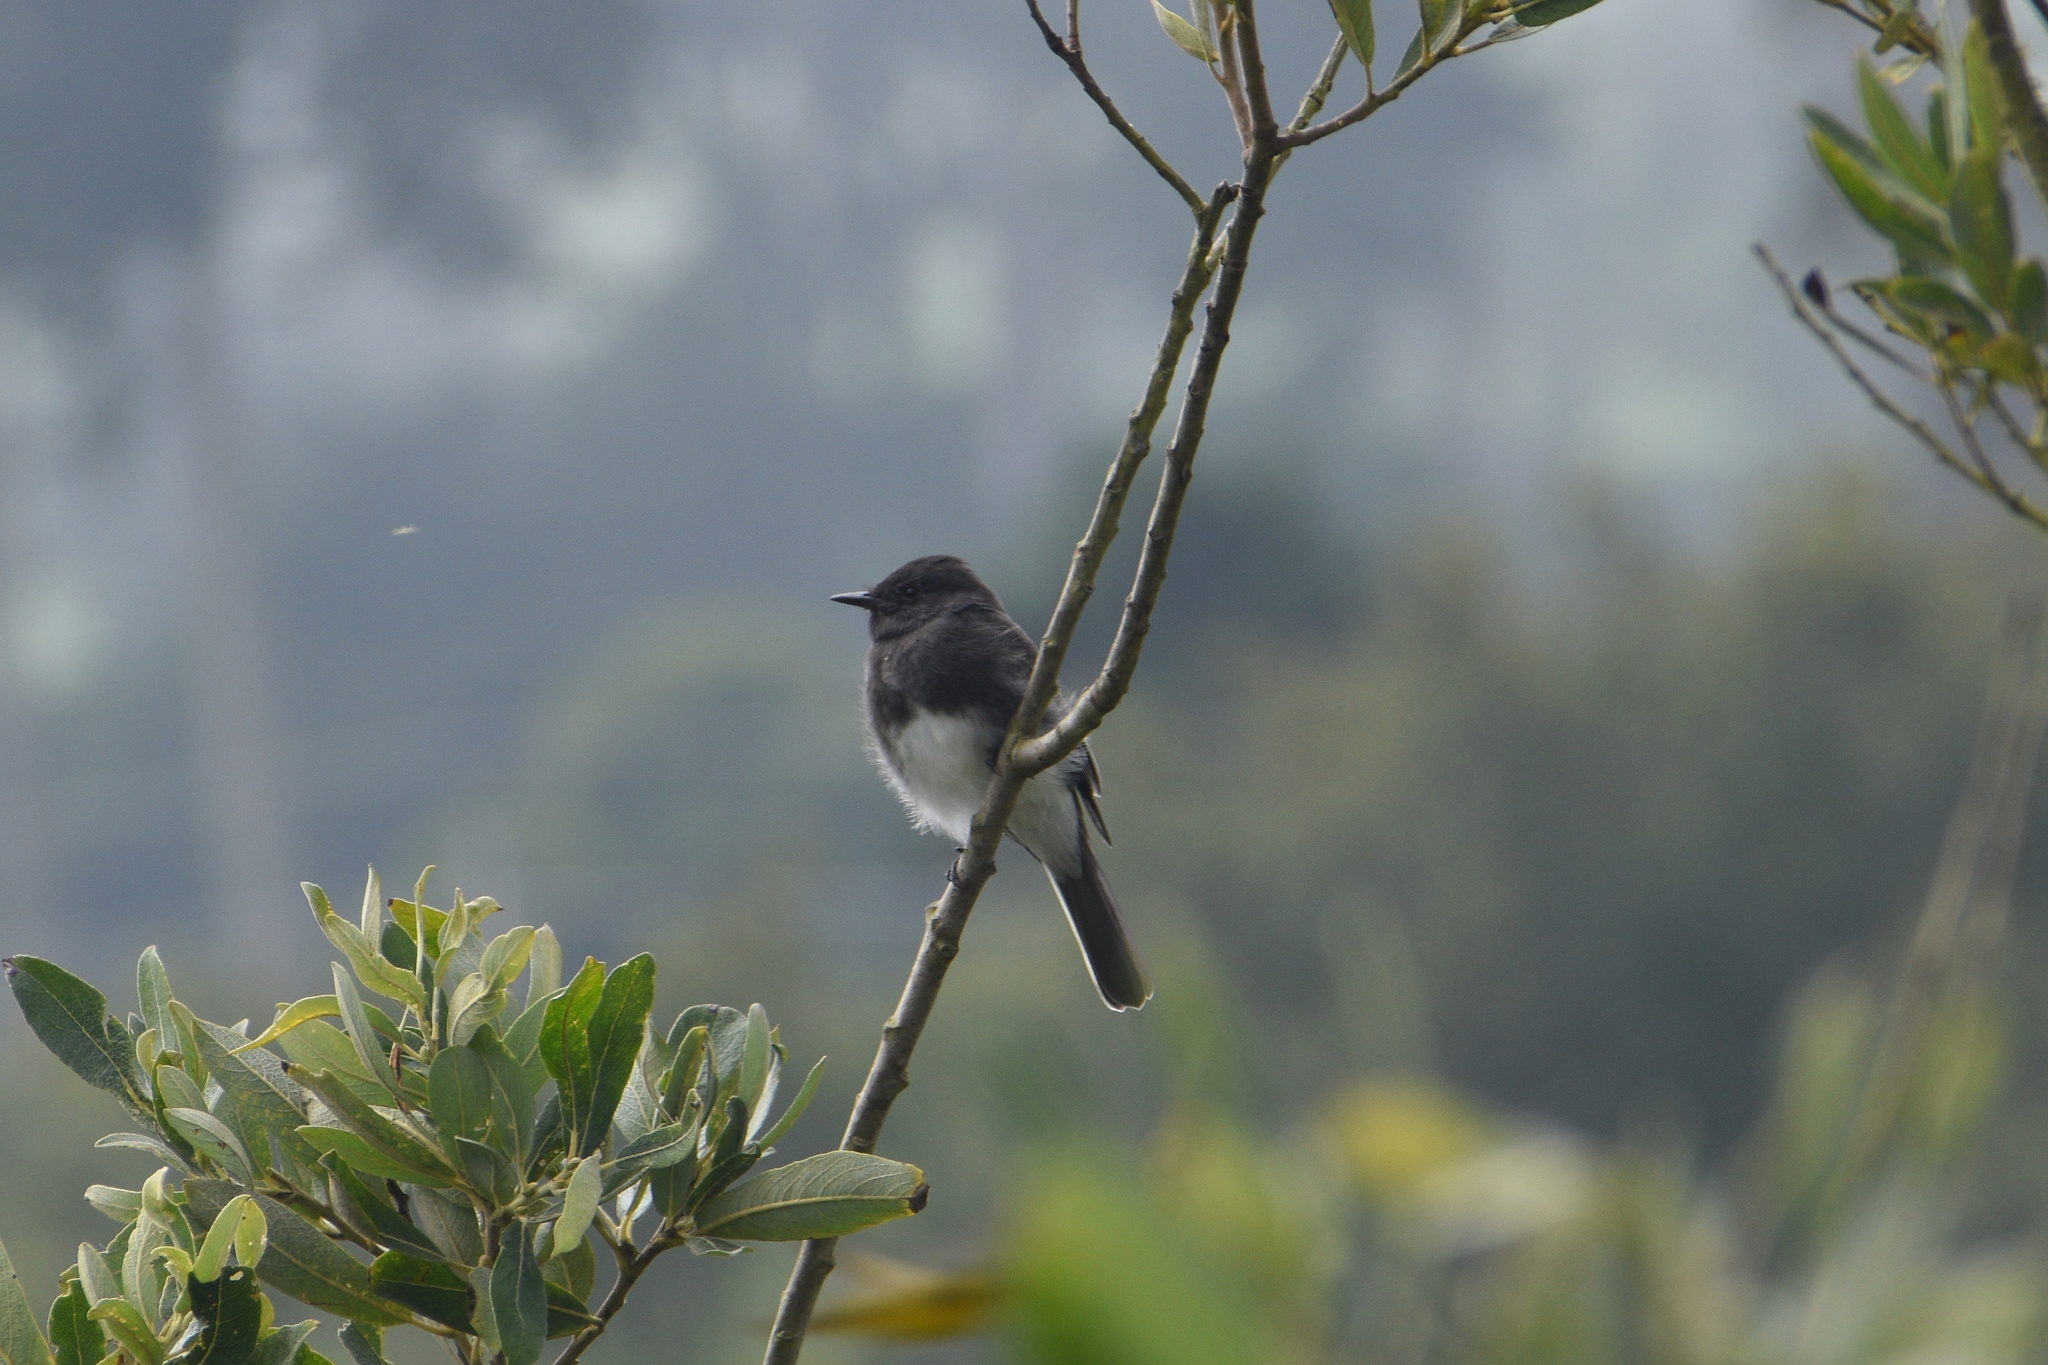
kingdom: Animalia
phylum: Chordata
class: Aves
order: Passeriformes
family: Tyrannidae
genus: Sayornis
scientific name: Sayornis nigricans
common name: Black phoebe
